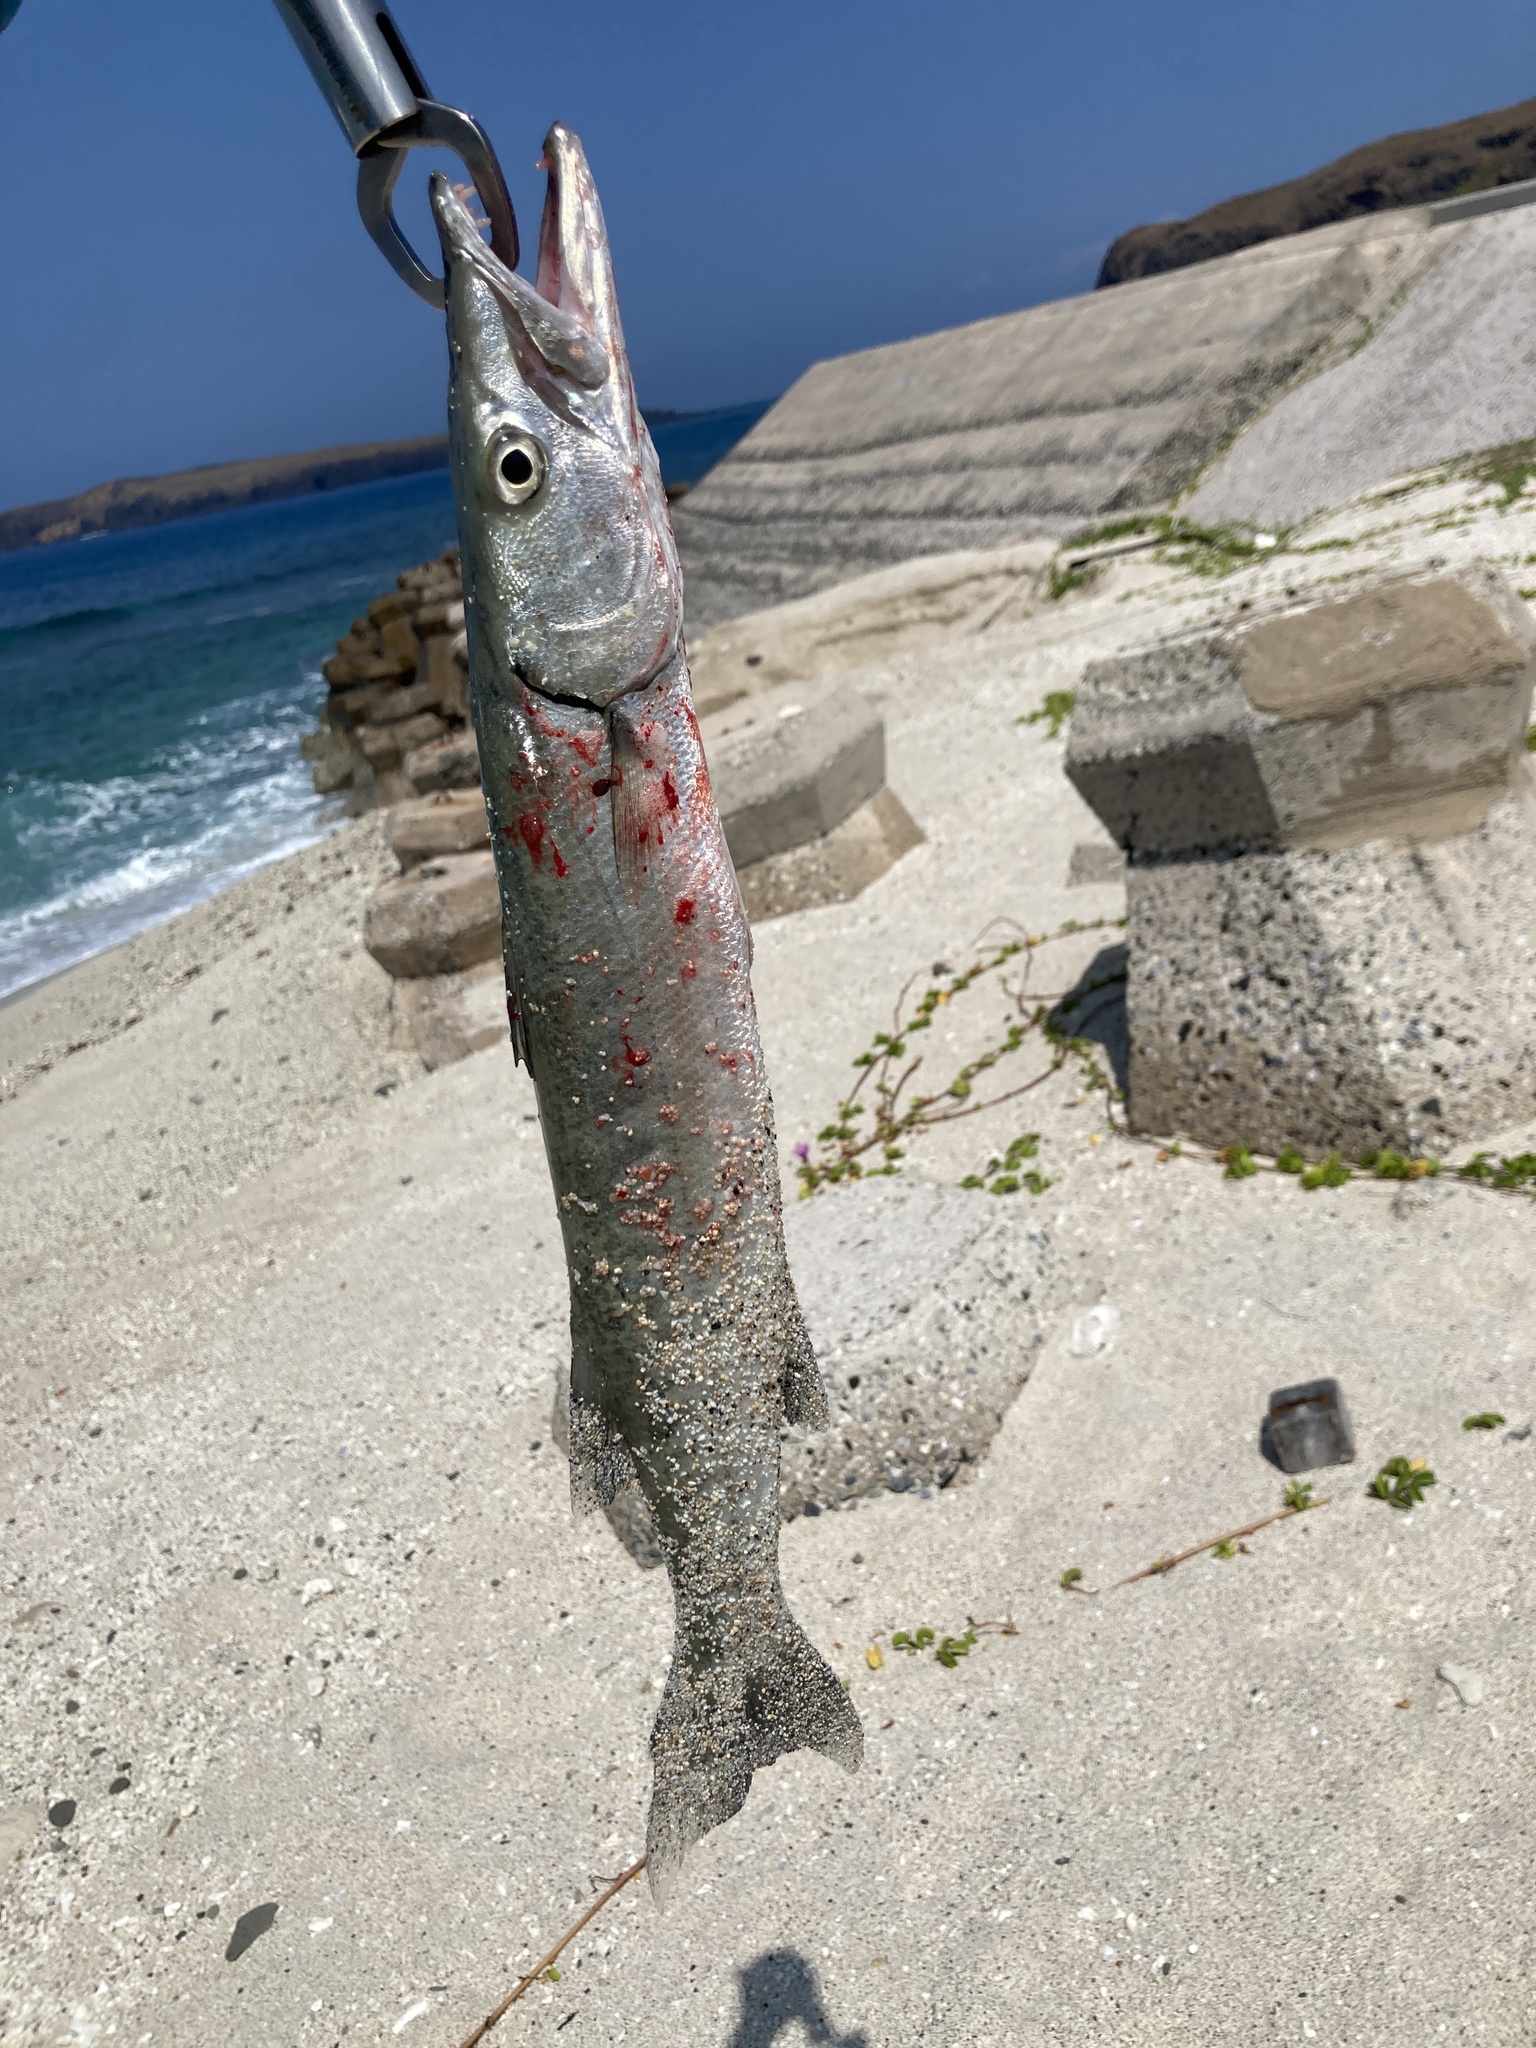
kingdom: Animalia
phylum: Chordata
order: Perciformes
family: Sphyraenidae
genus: Sphyraena
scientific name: Sphyraena barracuda
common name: Great barracuda
